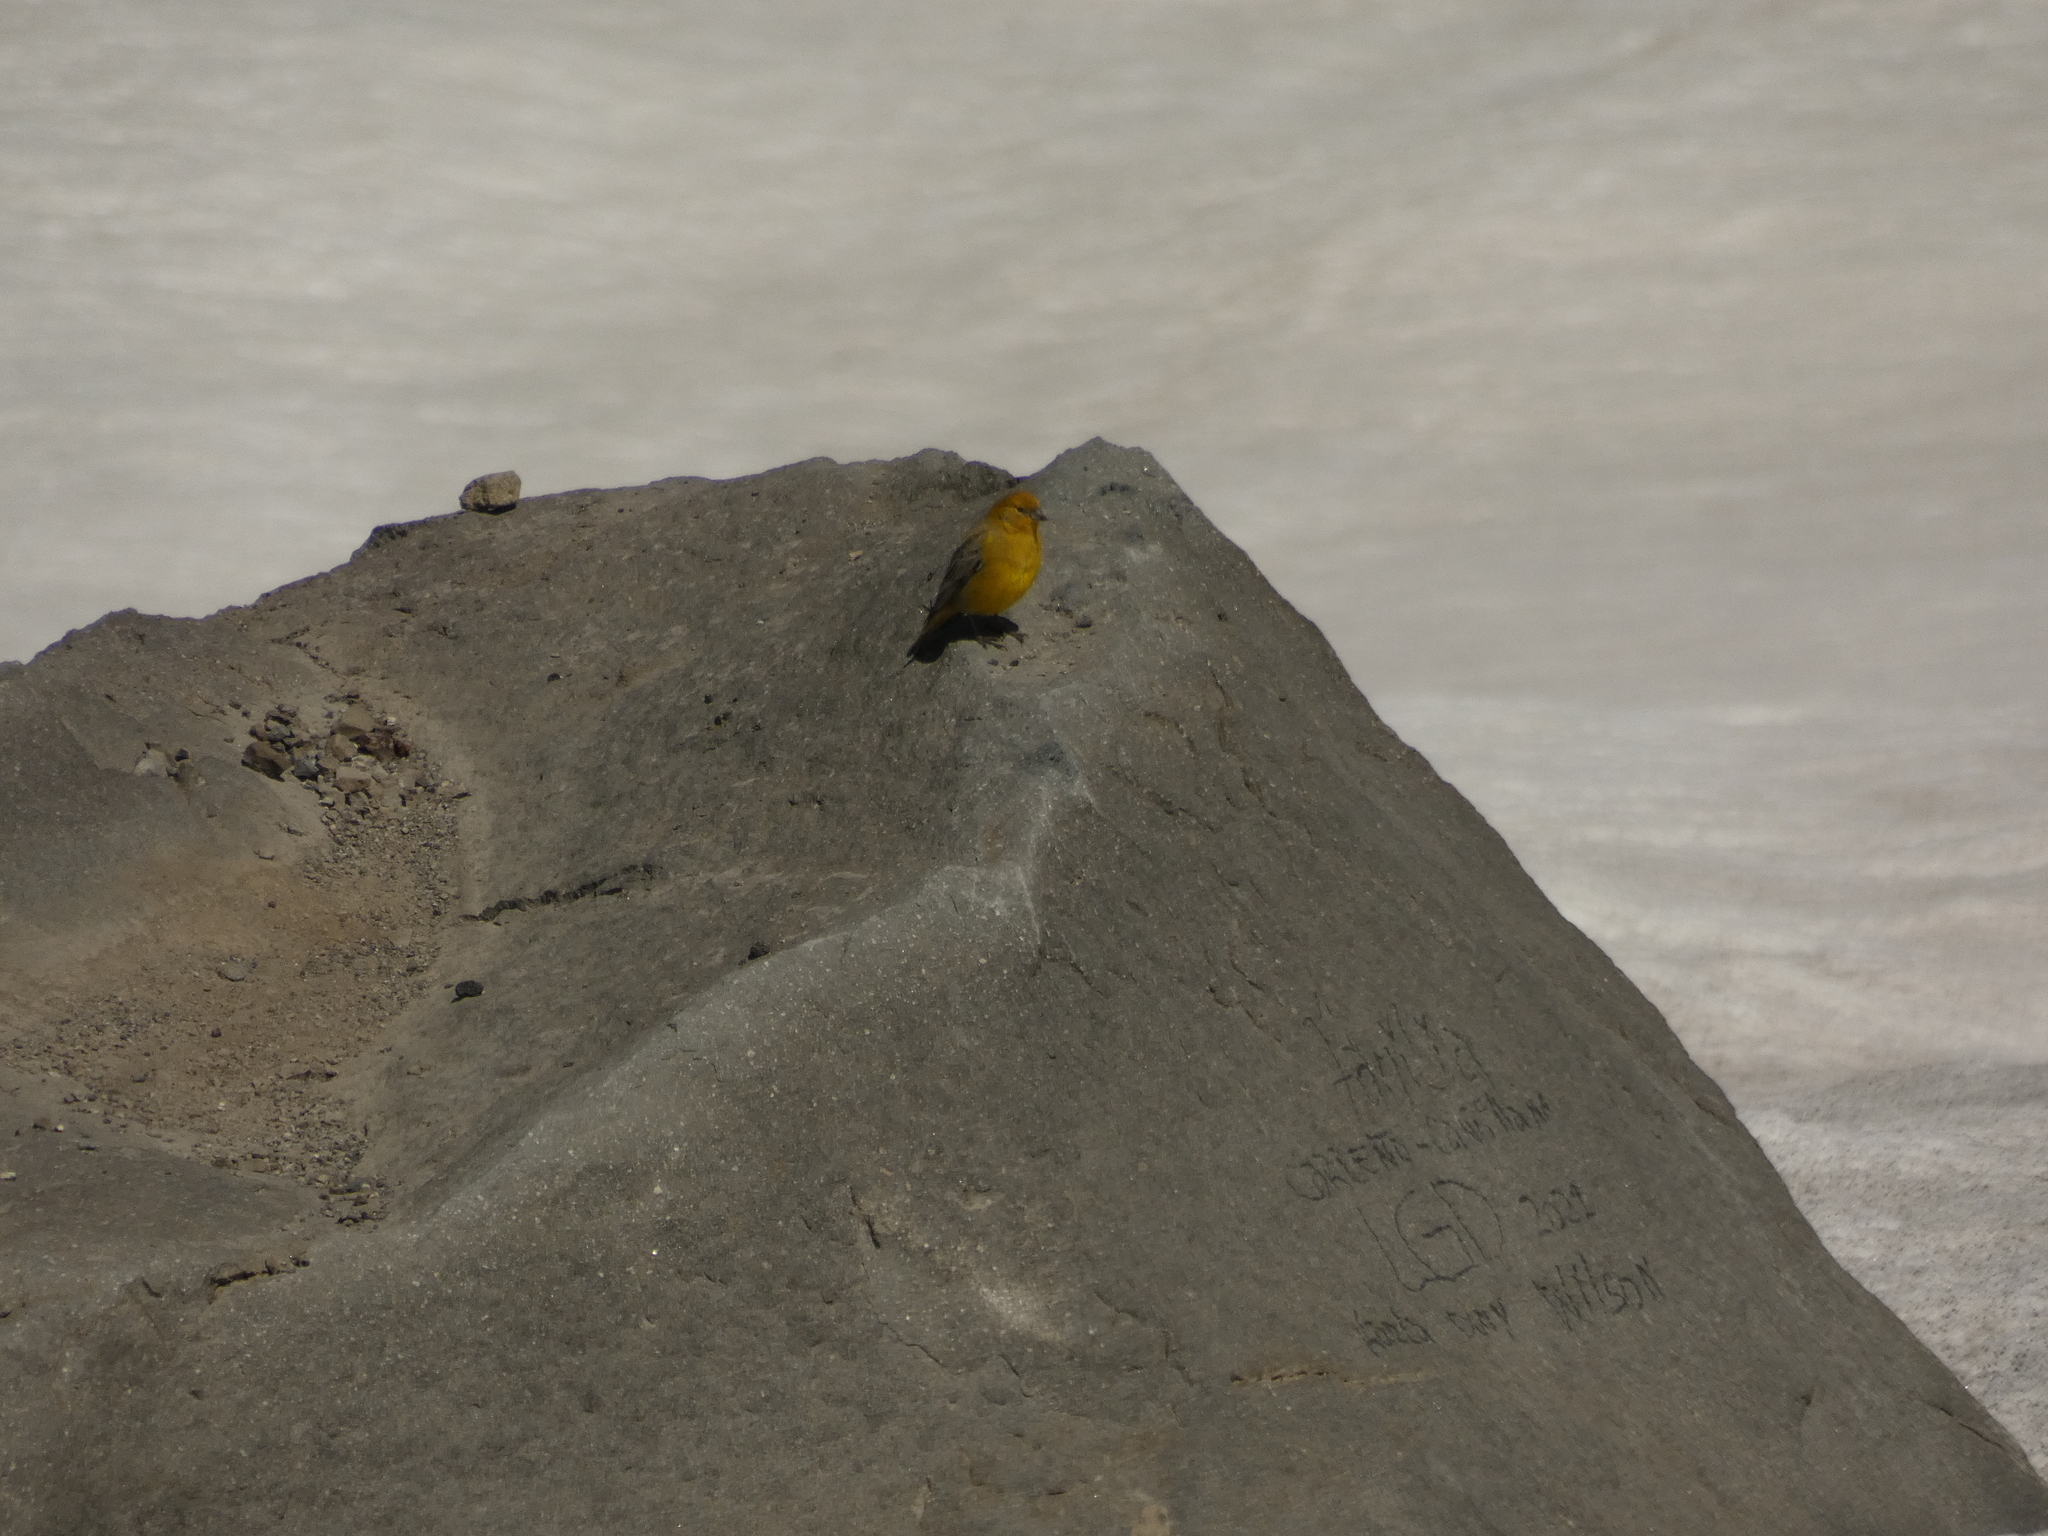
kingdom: Animalia
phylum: Chordata
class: Aves
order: Passeriformes
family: Thraupidae
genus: Sicalis
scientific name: Sicalis auriventris
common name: Greater yellow finch
